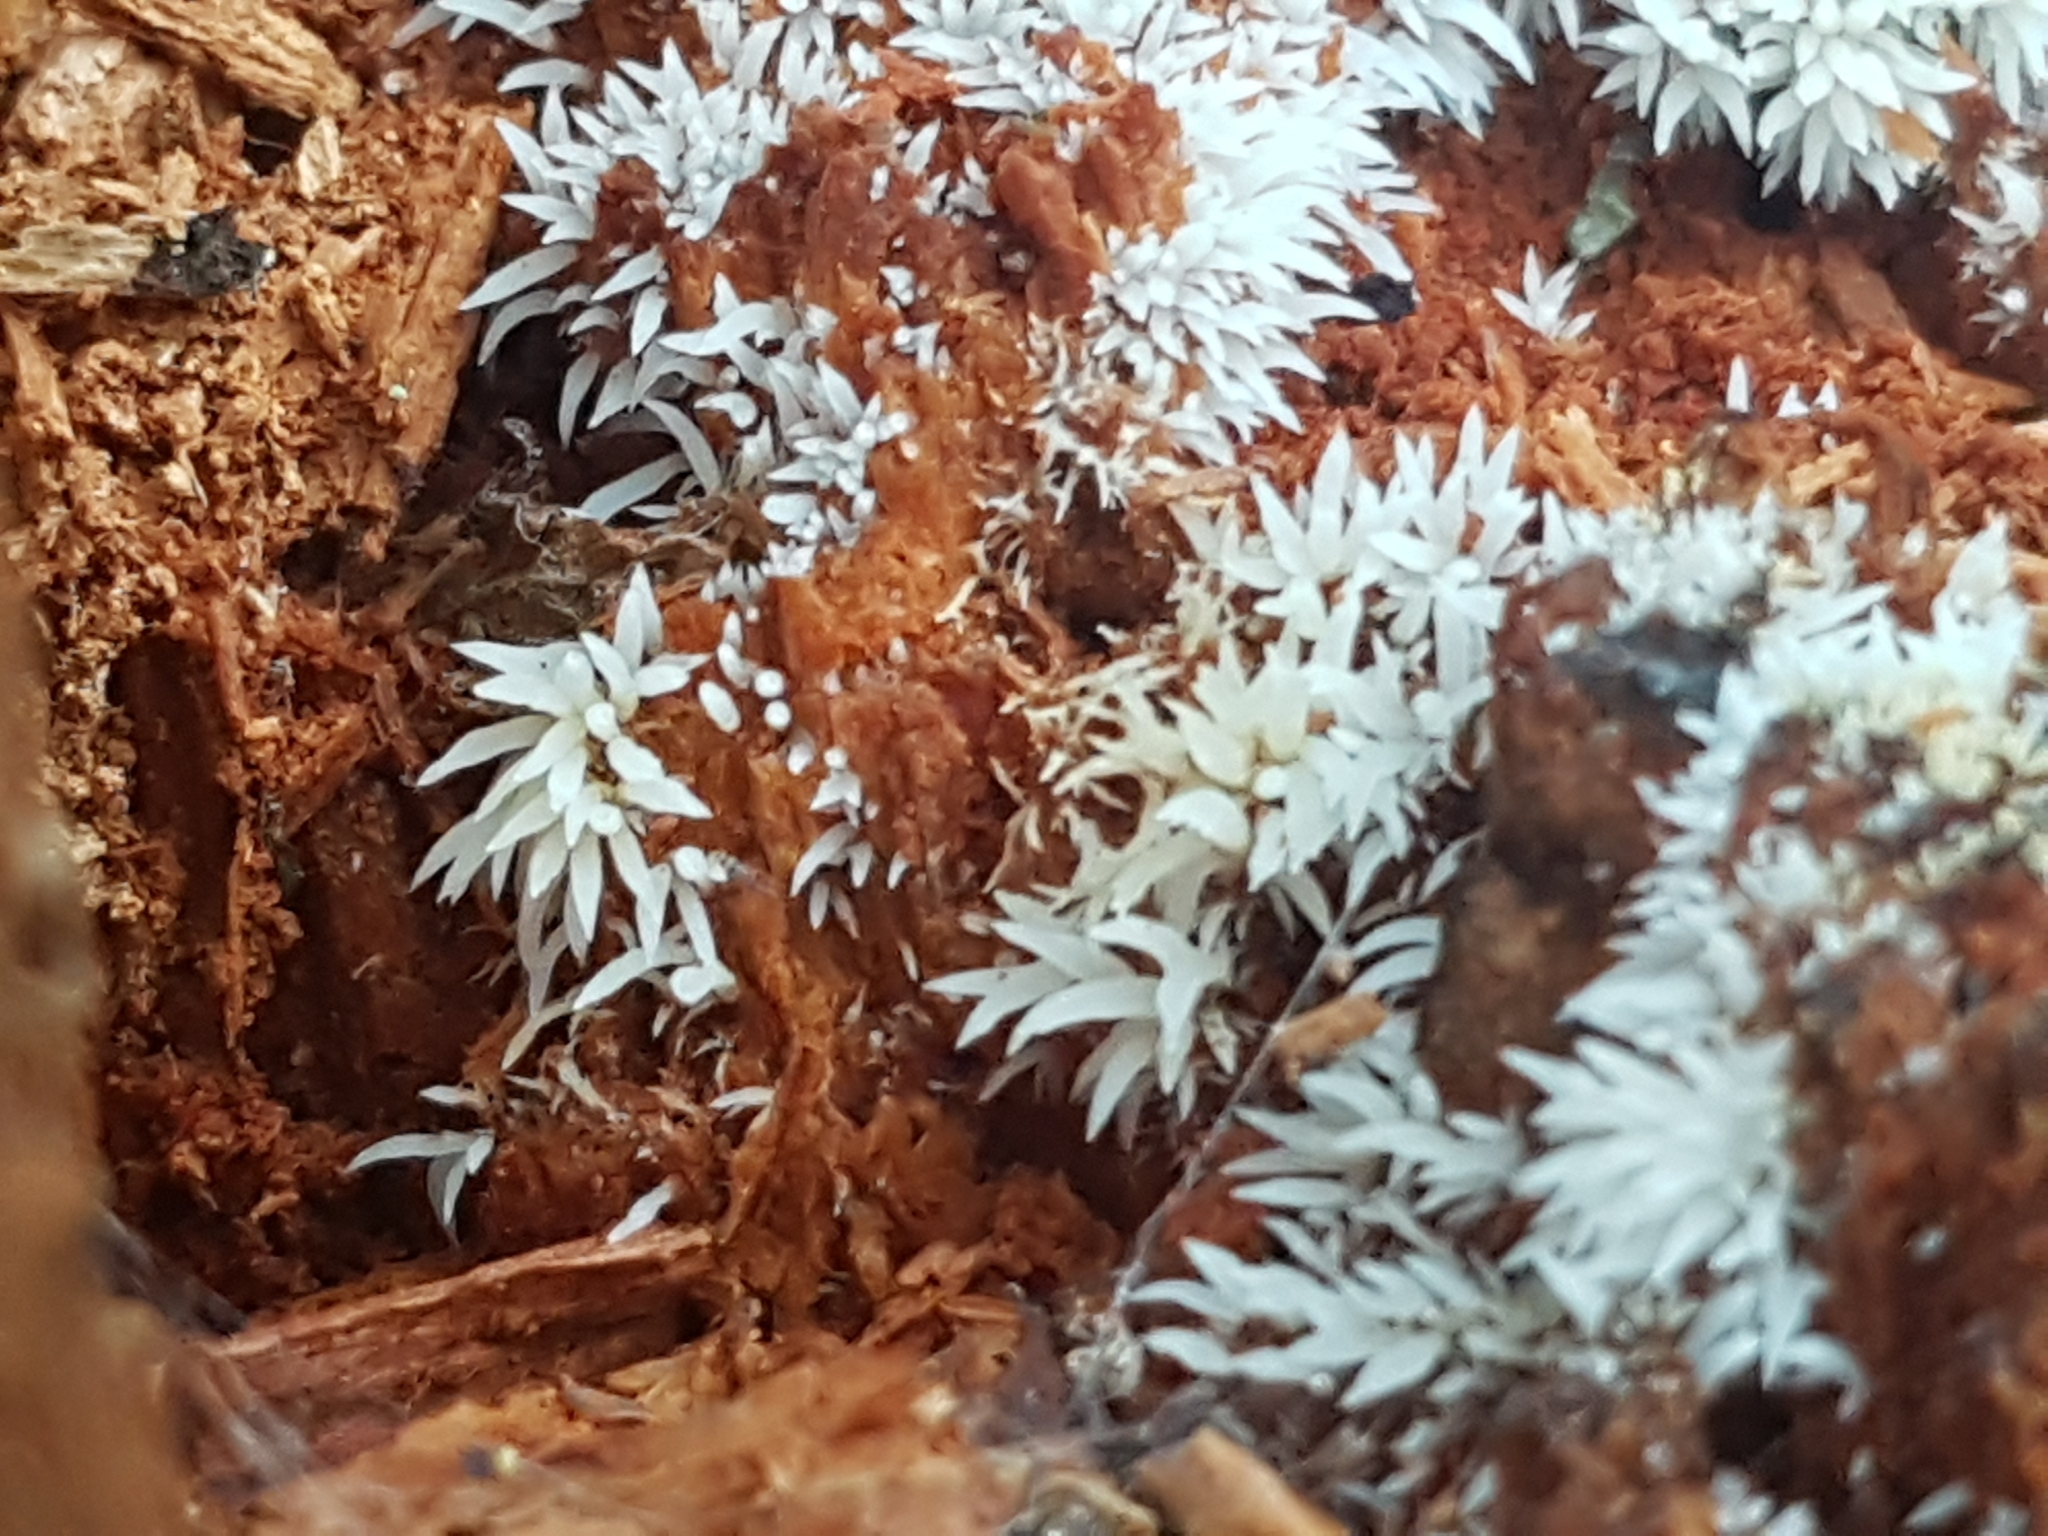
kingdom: Protozoa
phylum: Mycetozoa
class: Protosteliomycetes
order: Ceratiomyxales
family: Ceratiomyxaceae
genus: Ceratiomyxa
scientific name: Ceratiomyxa fruticulosa
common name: Honeycomb coral slime mold
